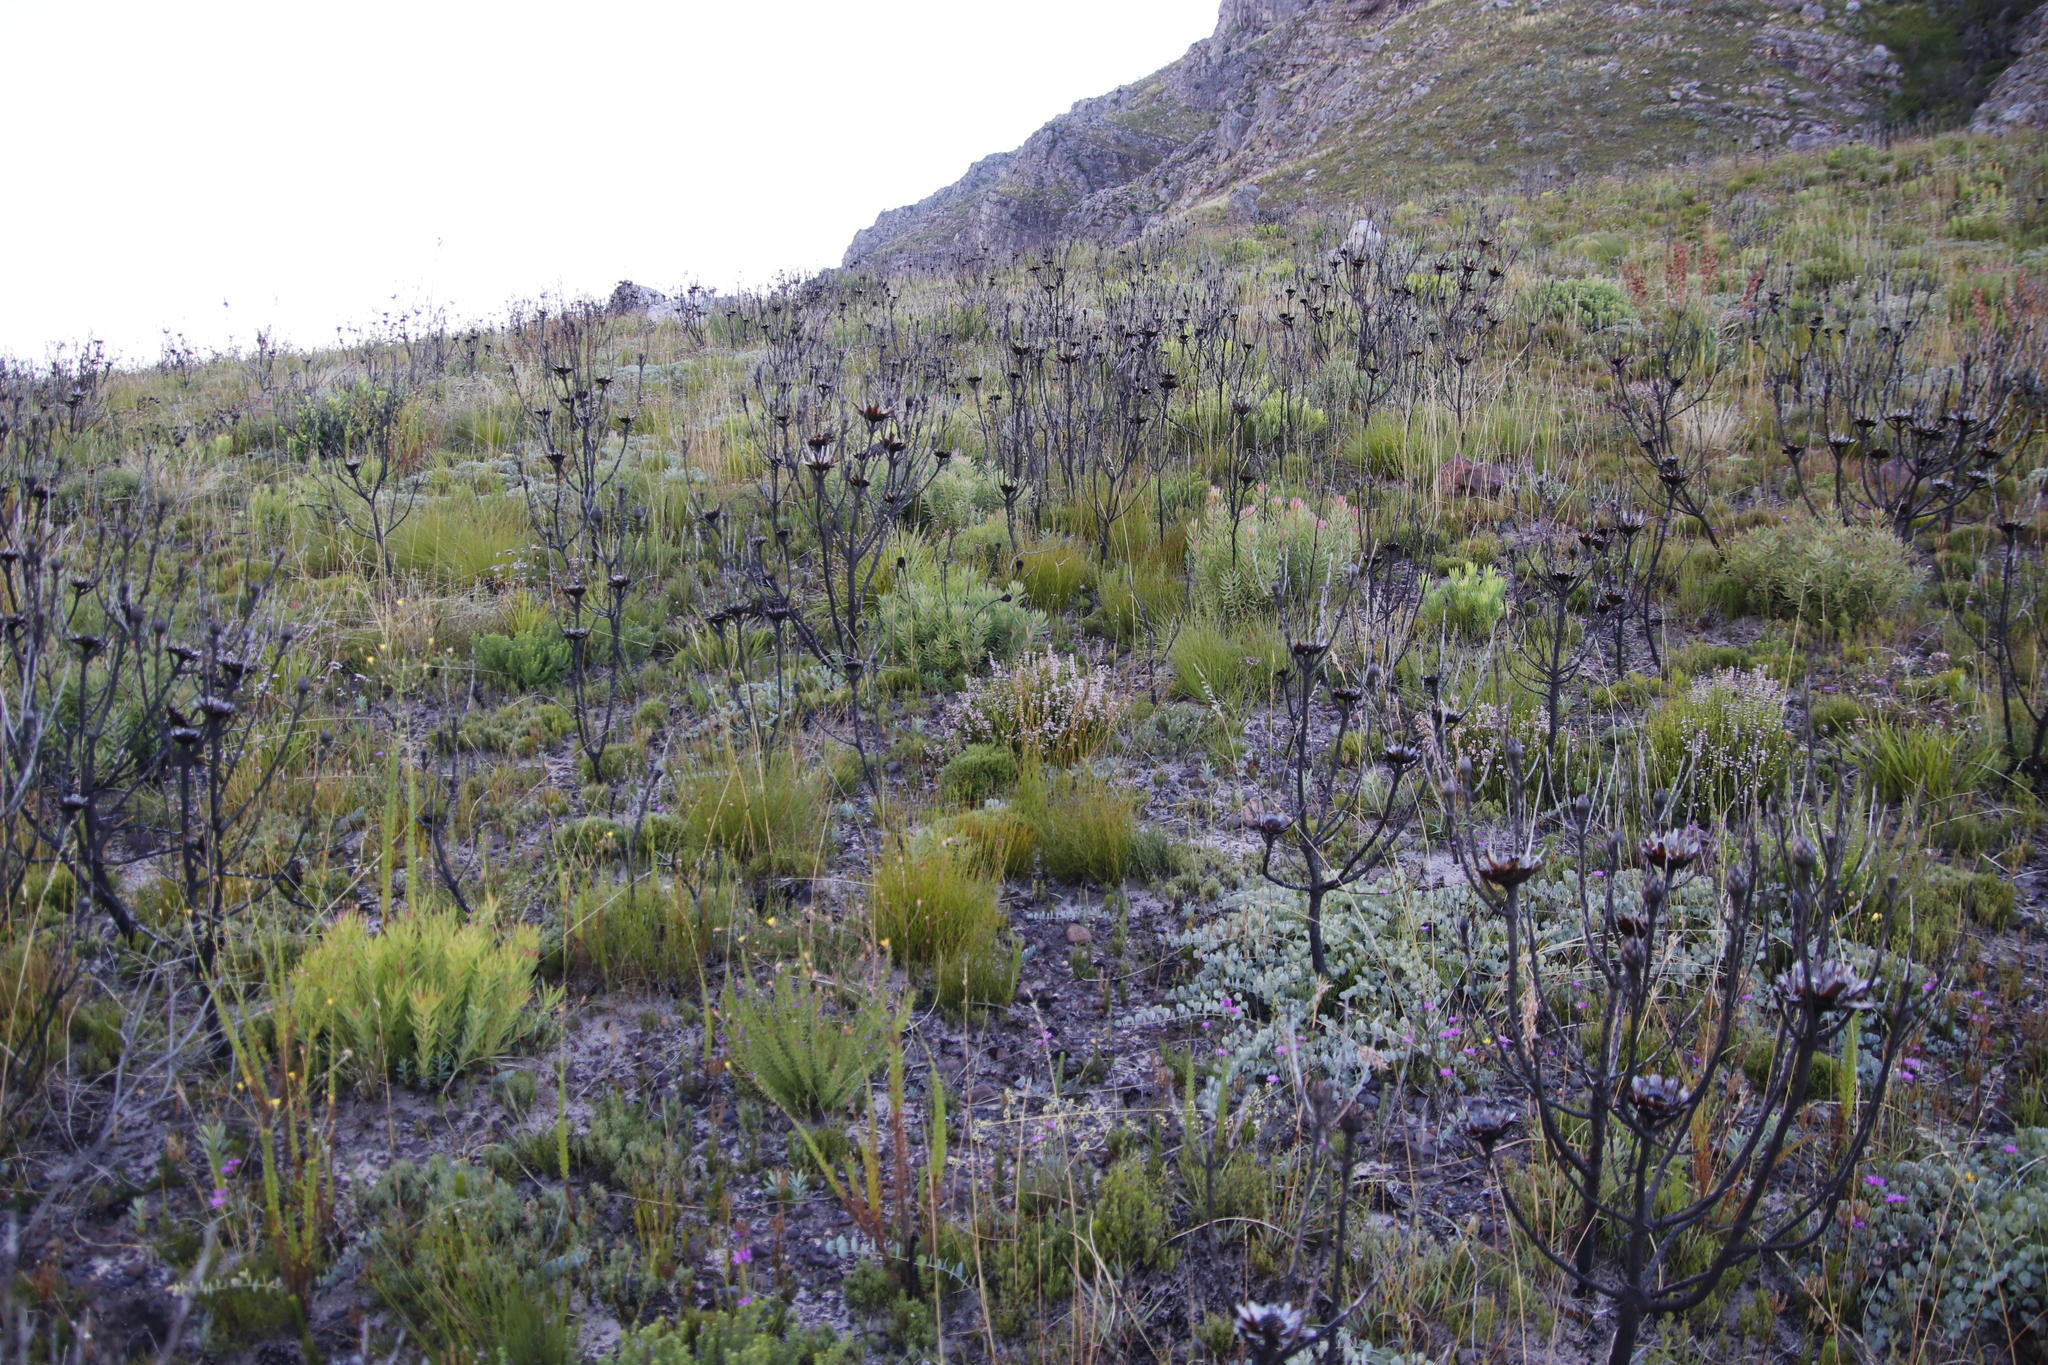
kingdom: Plantae
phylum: Tracheophyta
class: Magnoliopsida
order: Proteales
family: Proteaceae
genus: Protea
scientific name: Protea repens
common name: Sugarbush
